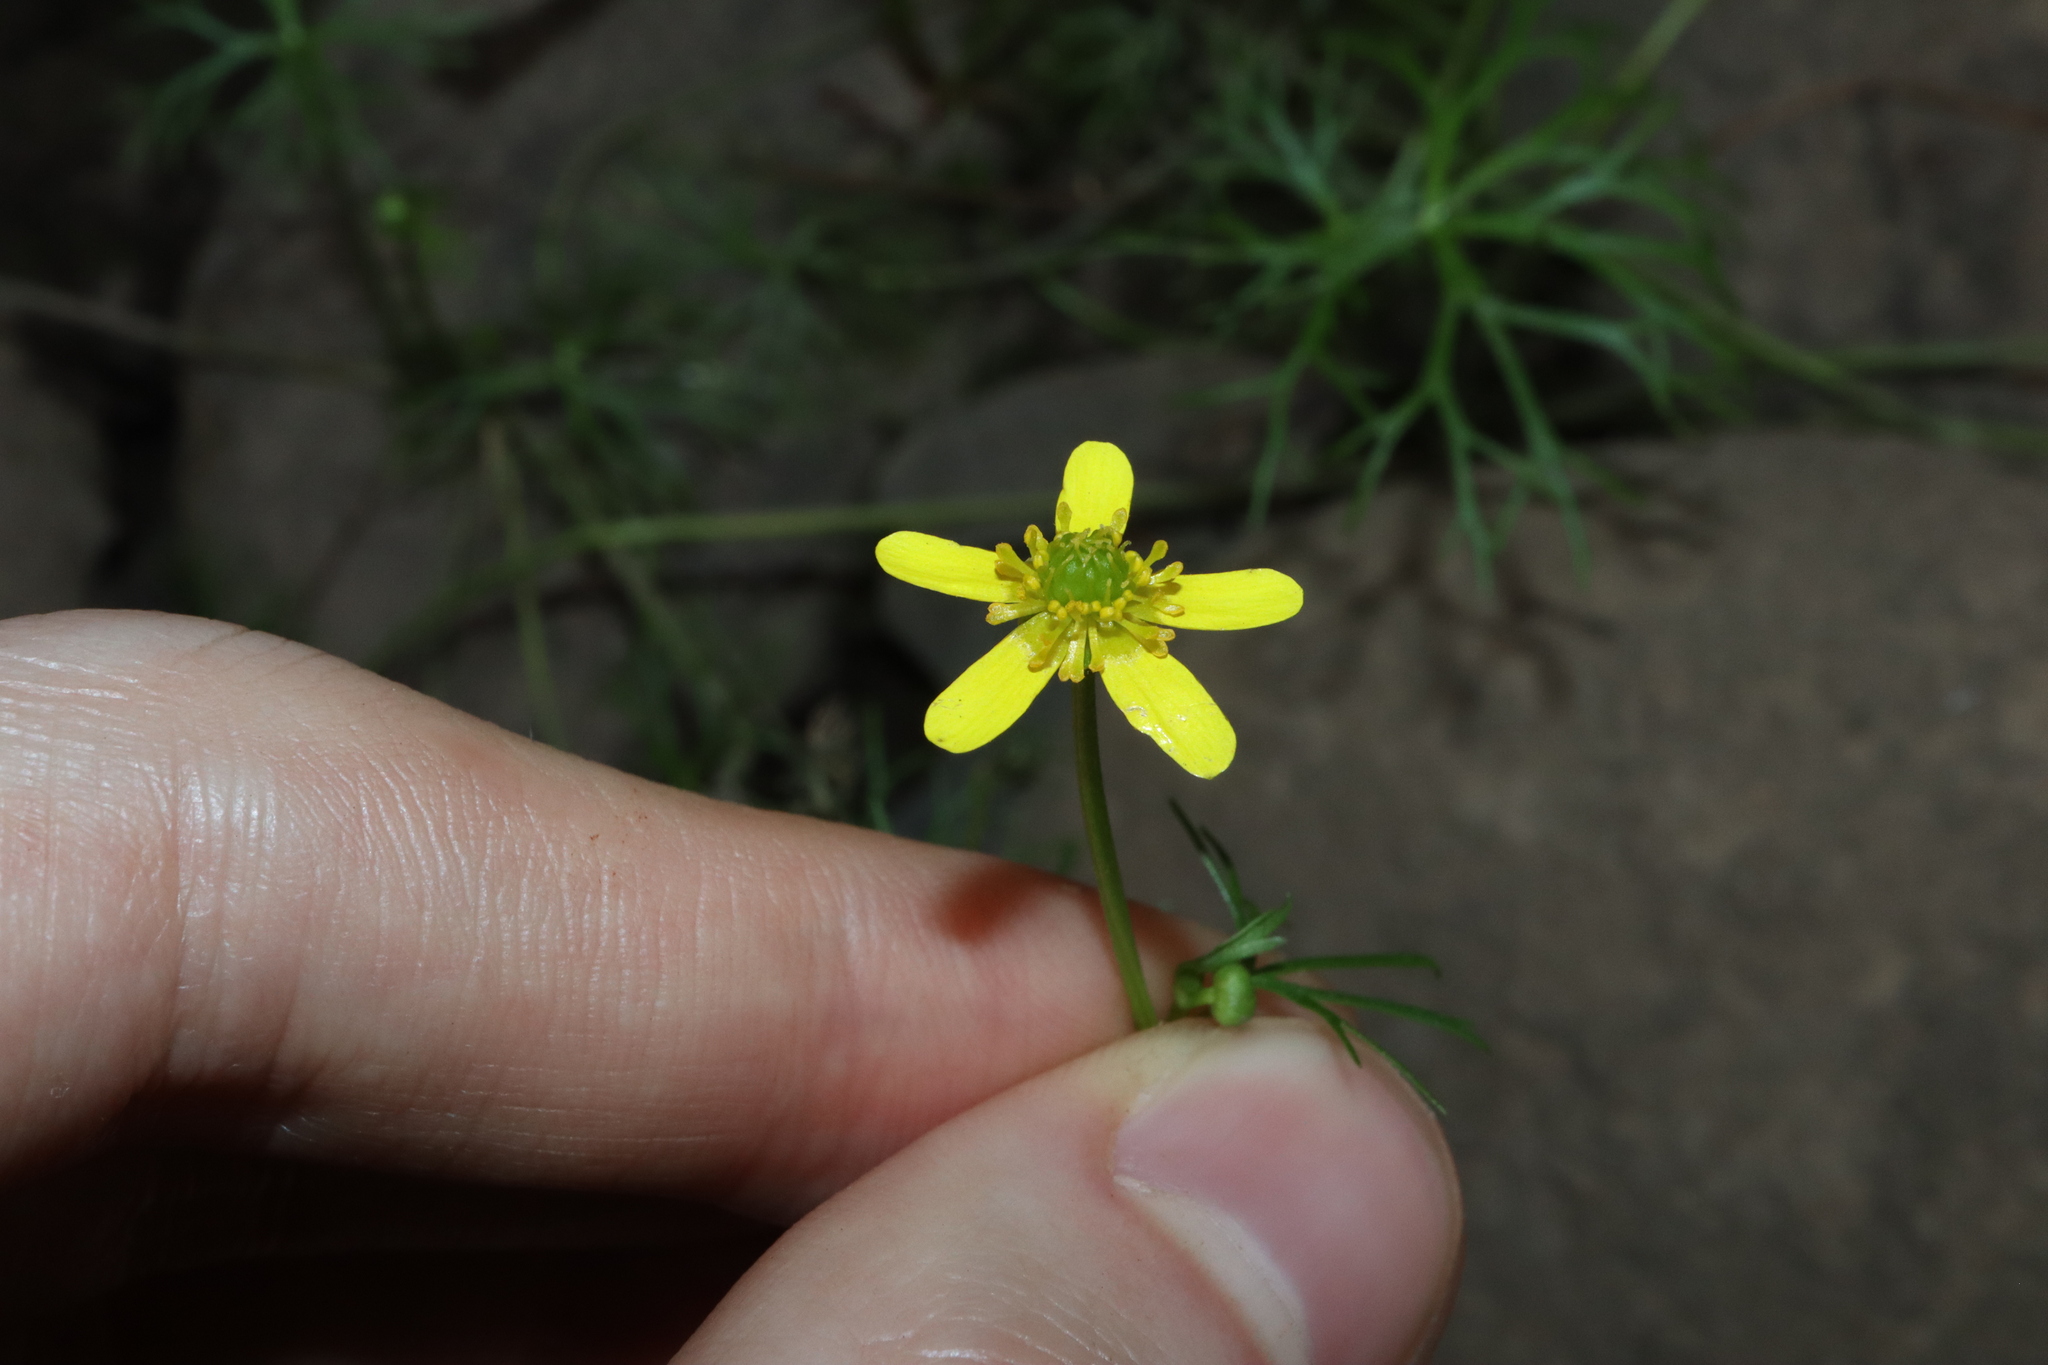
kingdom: Plantae
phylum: Tracheophyta
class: Magnoliopsida
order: Ranunculales
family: Ranunculaceae
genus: Ranunculus
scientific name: Ranunculus inundatus
